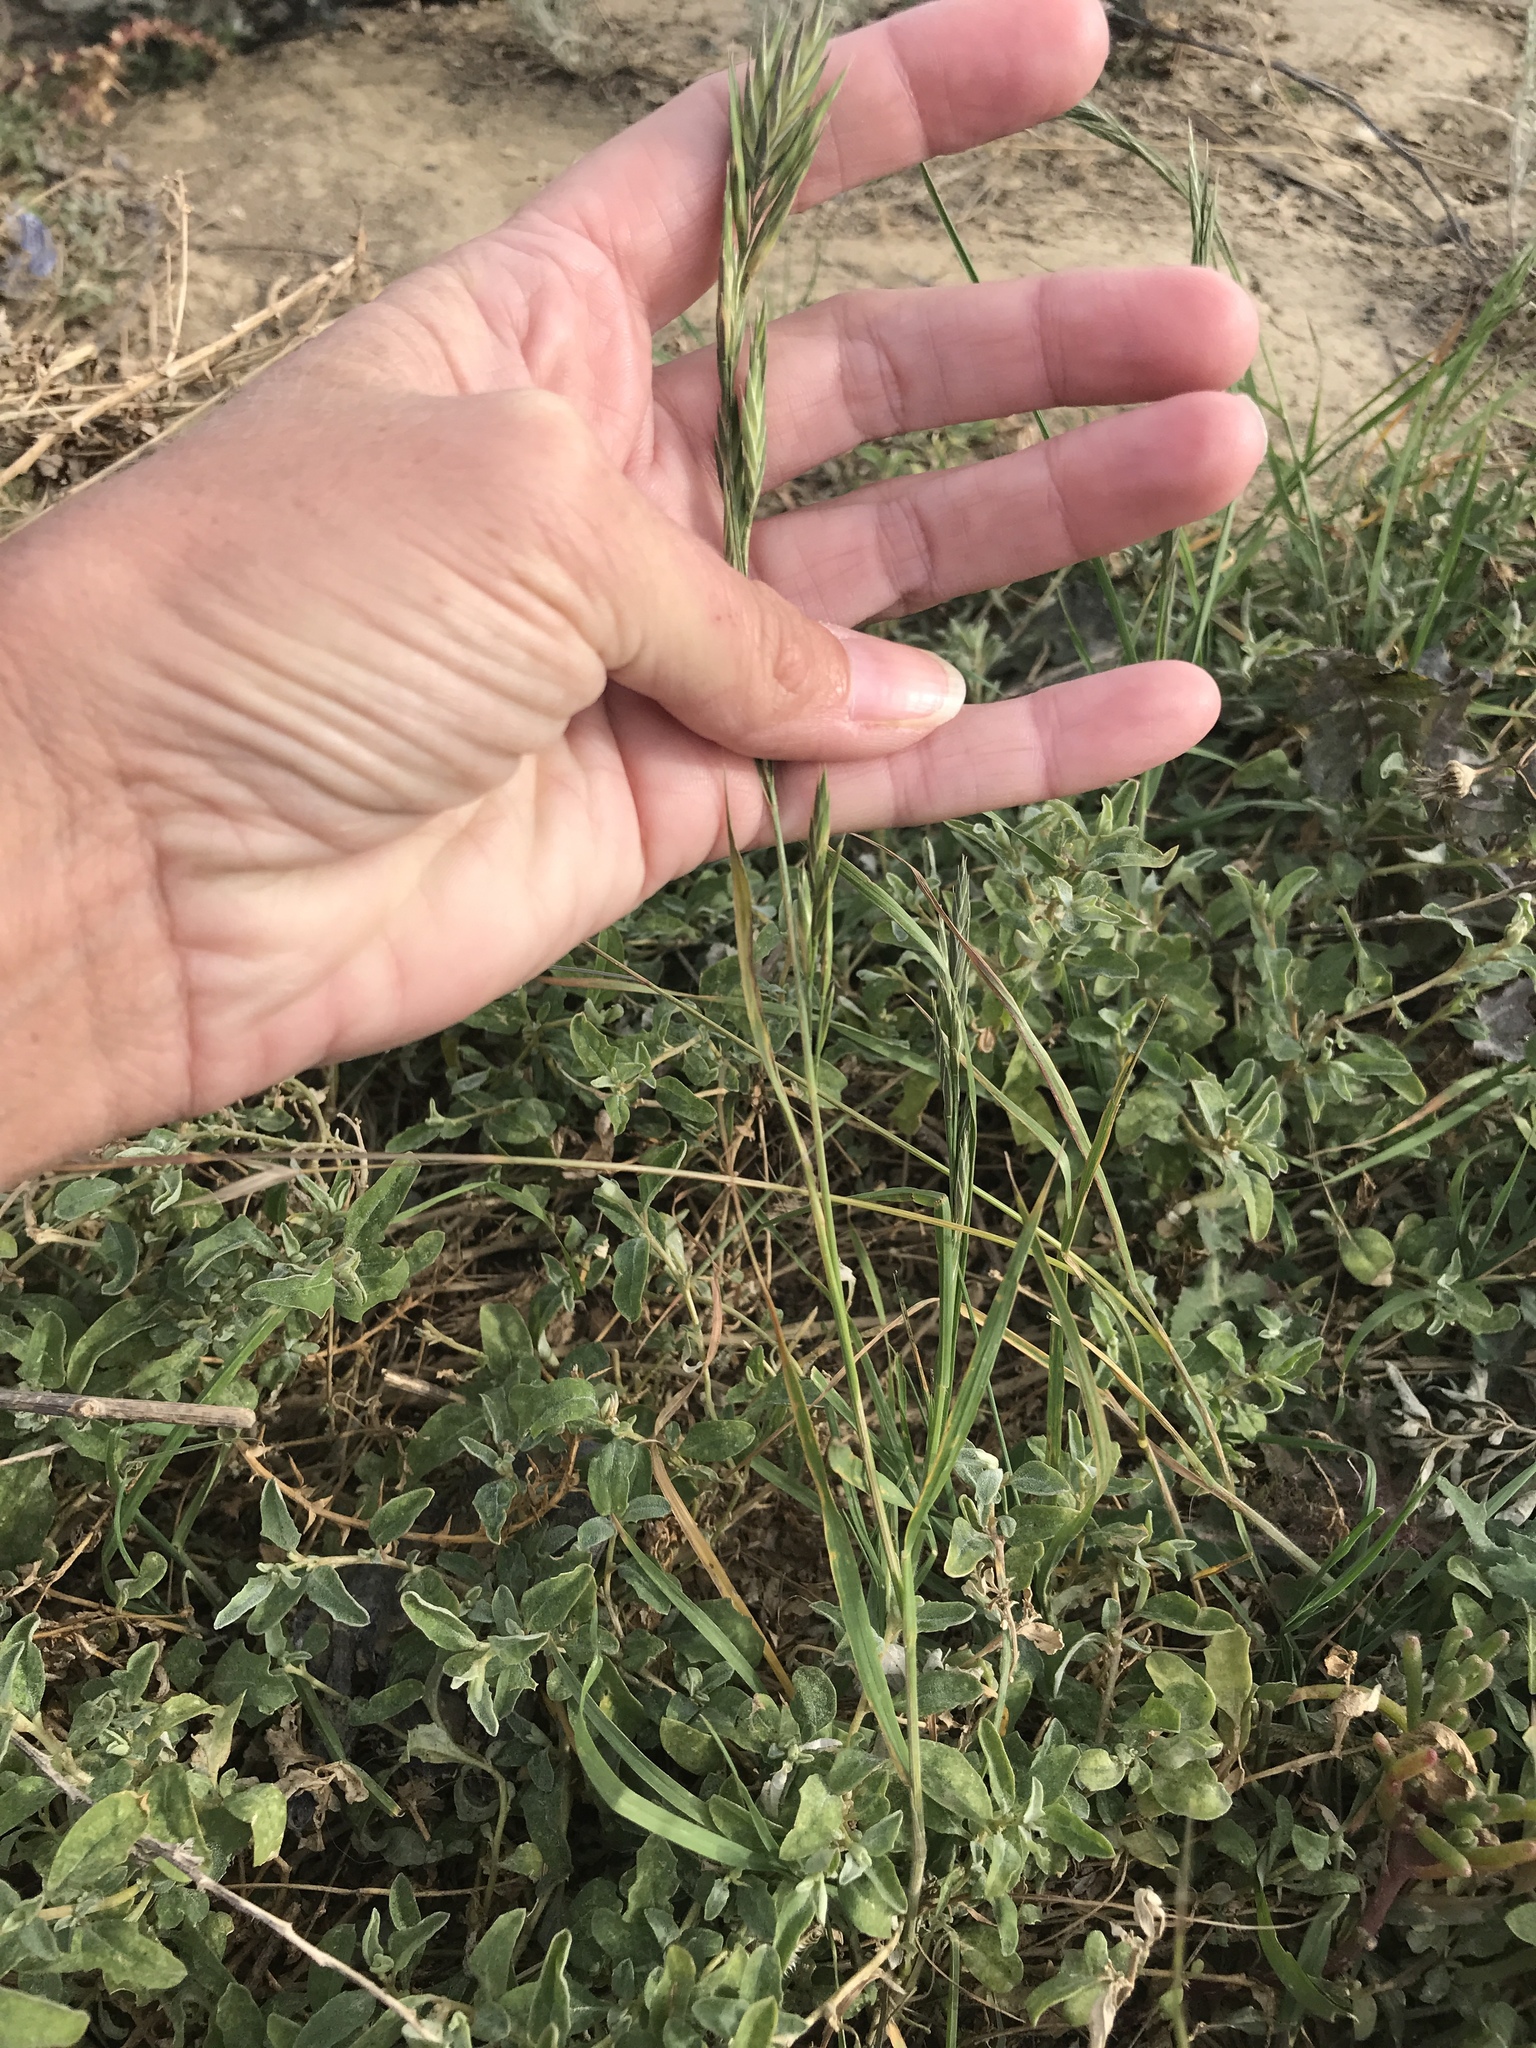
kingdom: Plantae
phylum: Tracheophyta
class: Liliopsida
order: Poales
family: Poaceae
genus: Bromus
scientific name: Bromus catharticus
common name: Rescuegrass
